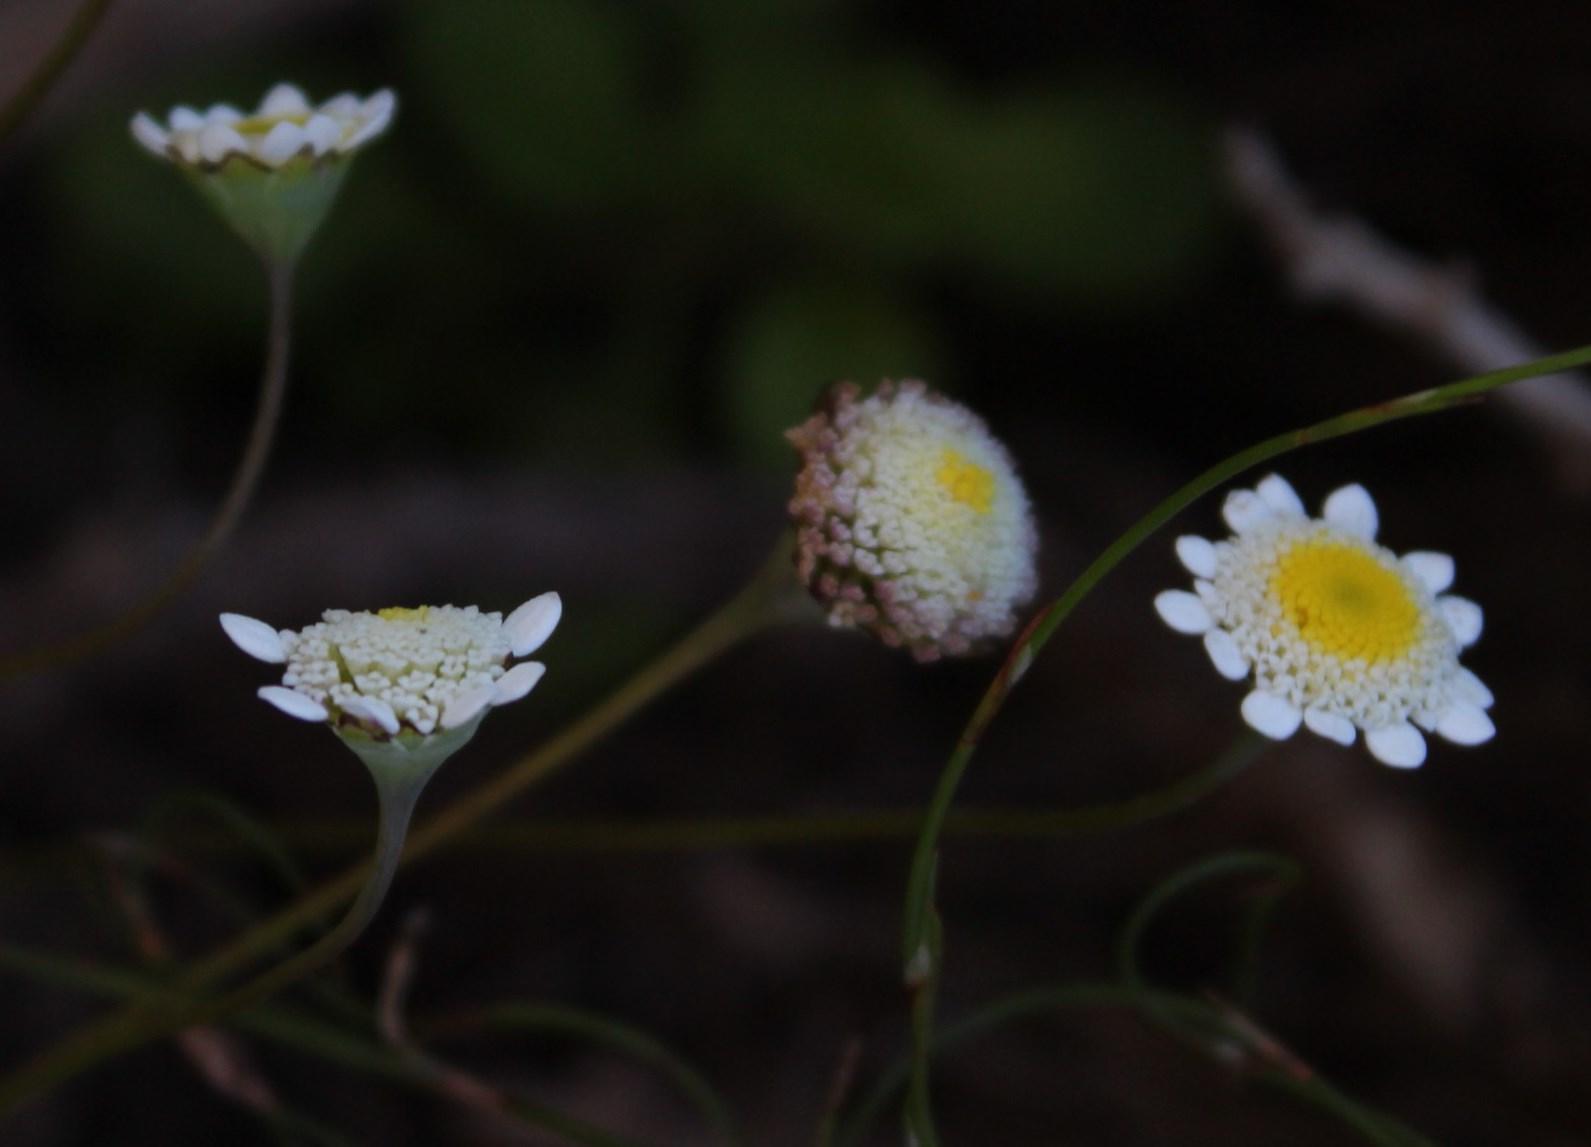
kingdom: Plantae
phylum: Tracheophyta
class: Magnoliopsida
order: Asterales
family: Asteraceae
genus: Cotula
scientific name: Cotula turbinata
